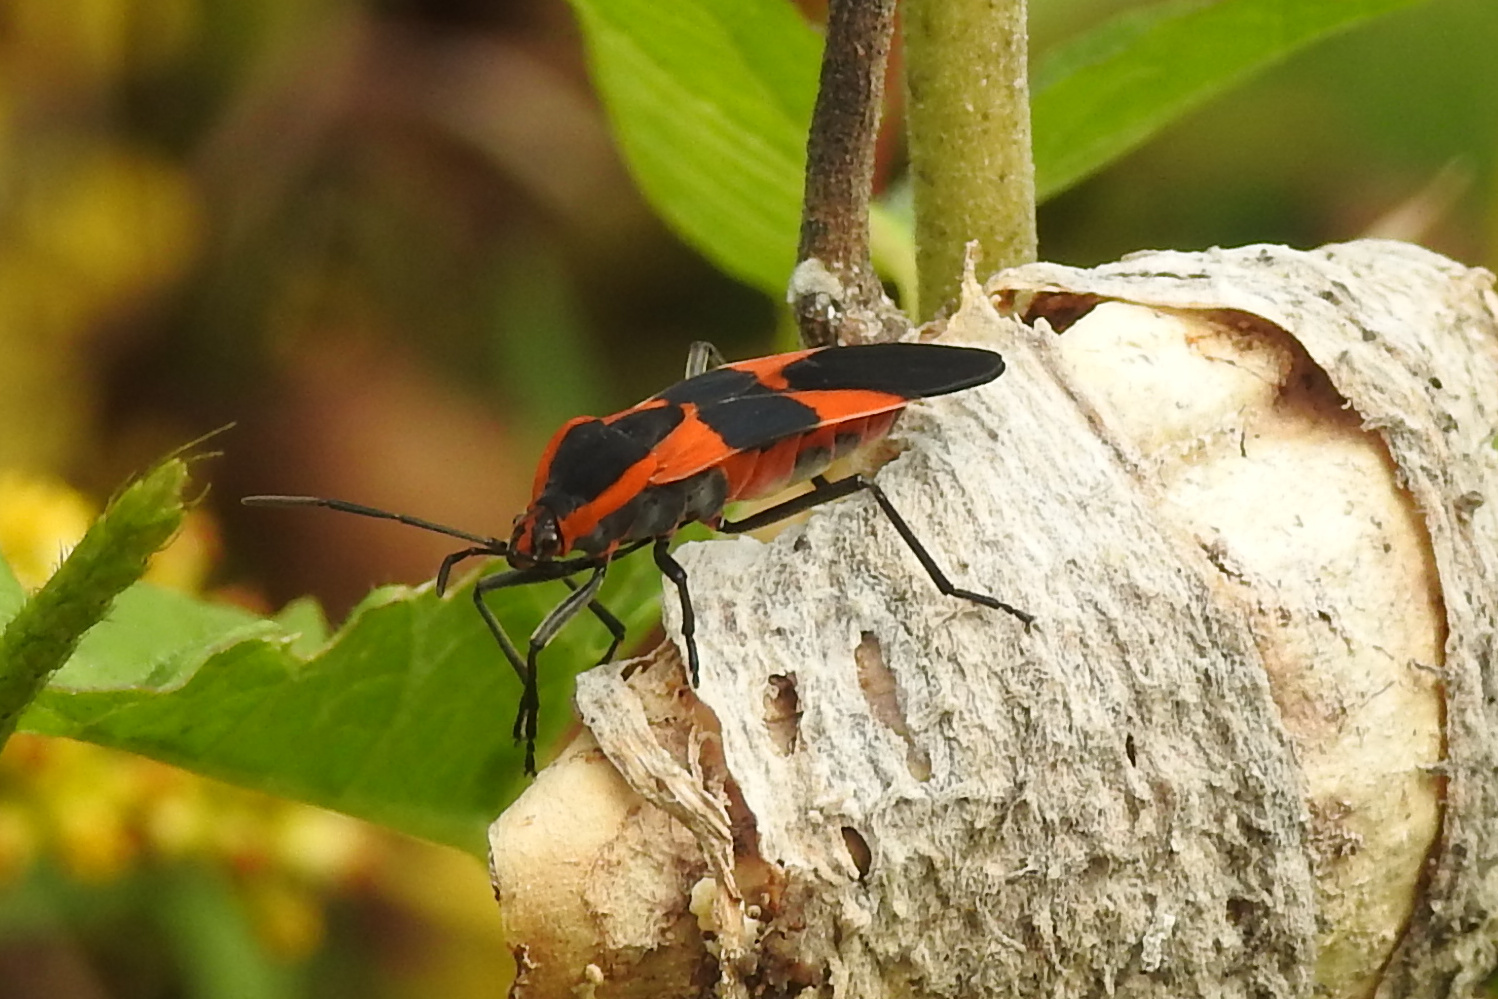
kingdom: Animalia
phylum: Arthropoda
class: Insecta
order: Hemiptera
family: Lygaeidae
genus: Oncopeltus
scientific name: Oncopeltus fasciatus
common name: Large milkweed bug
